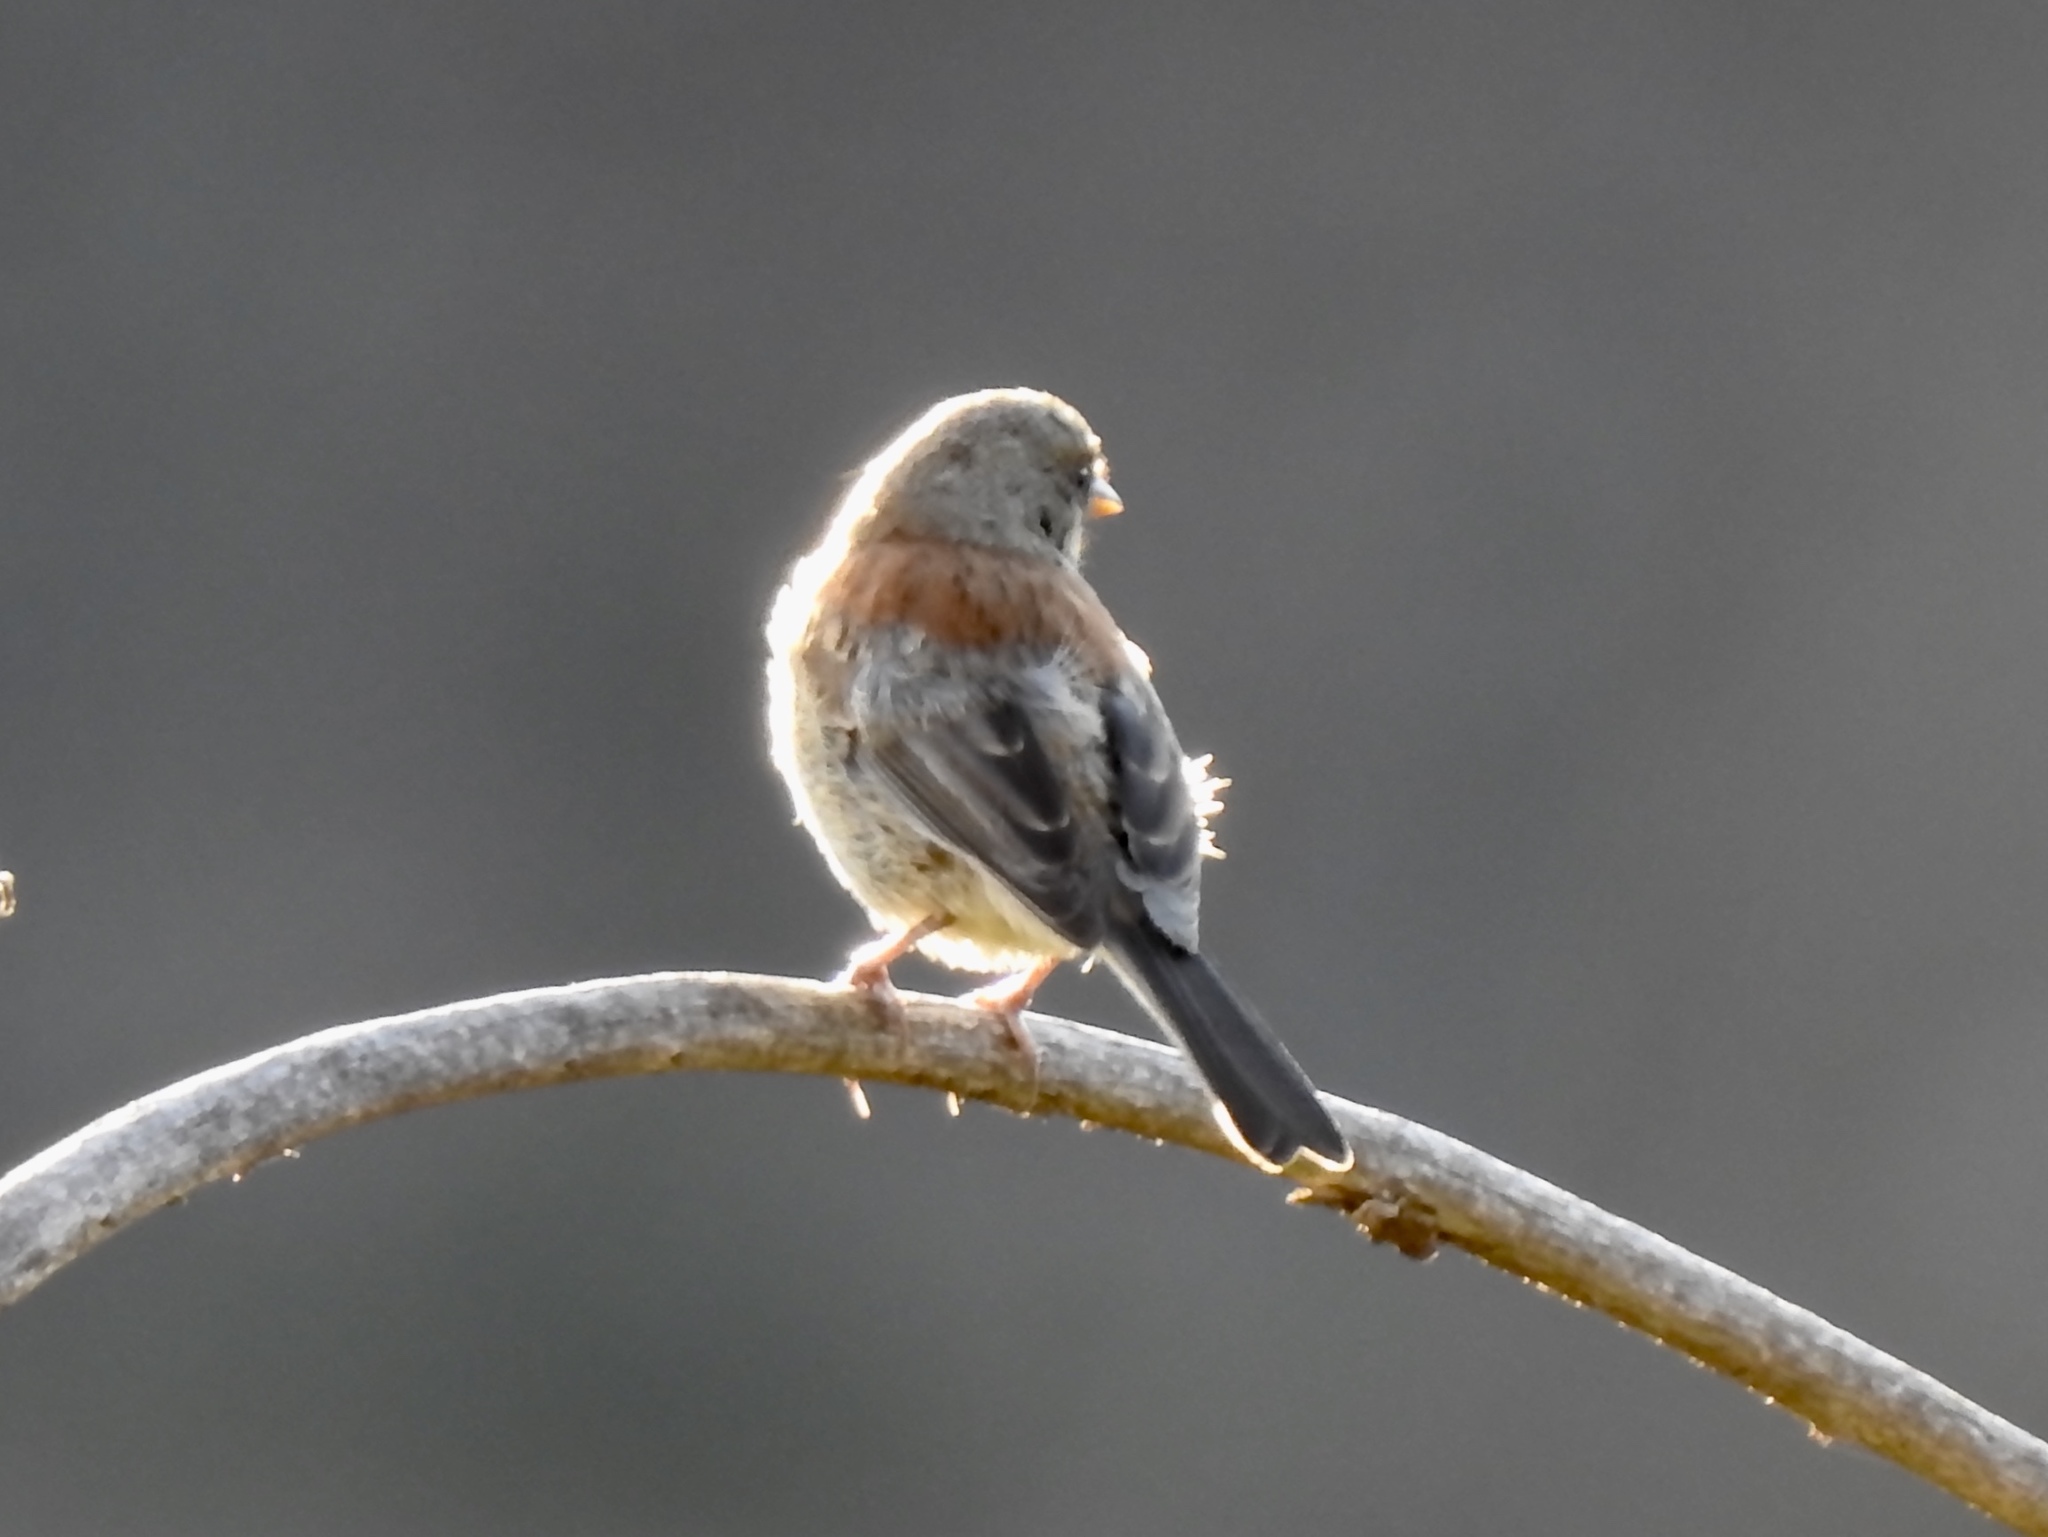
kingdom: Animalia
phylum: Chordata
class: Aves
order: Passeriformes
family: Passerellidae
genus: Junco
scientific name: Junco hyemalis
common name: Dark-eyed junco
